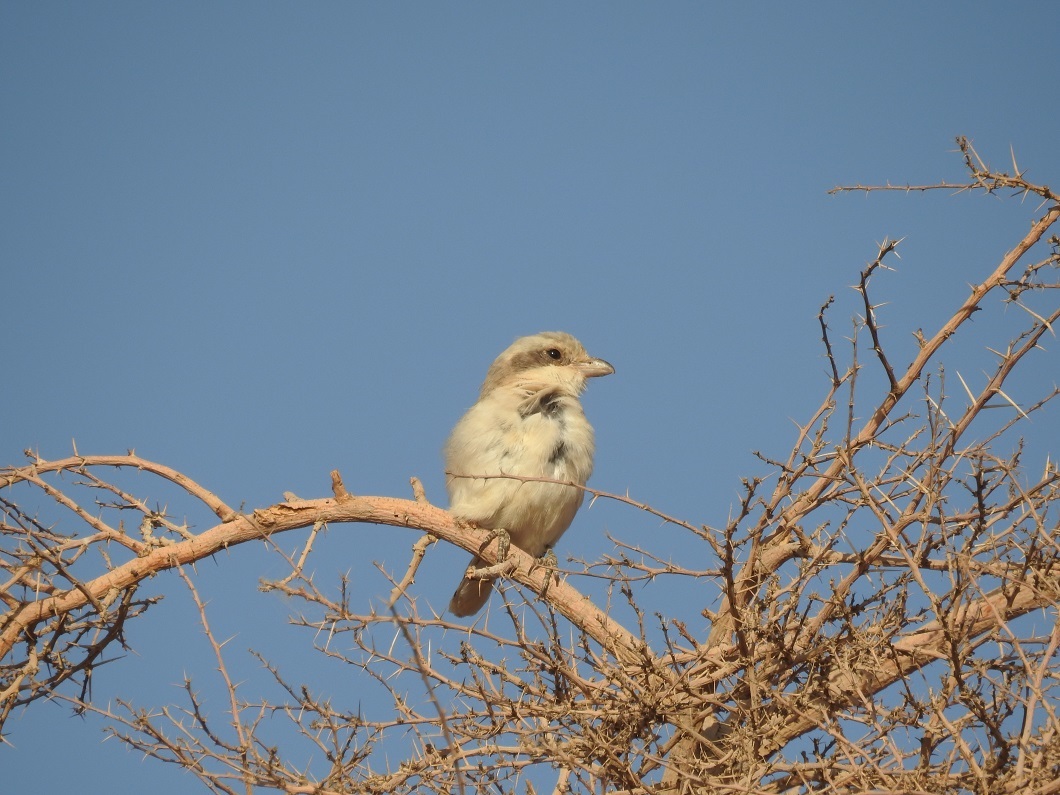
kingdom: Animalia
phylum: Chordata
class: Aves
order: Passeriformes
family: Laniidae
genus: Lanius
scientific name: Lanius excubitor
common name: Great grey shrike
